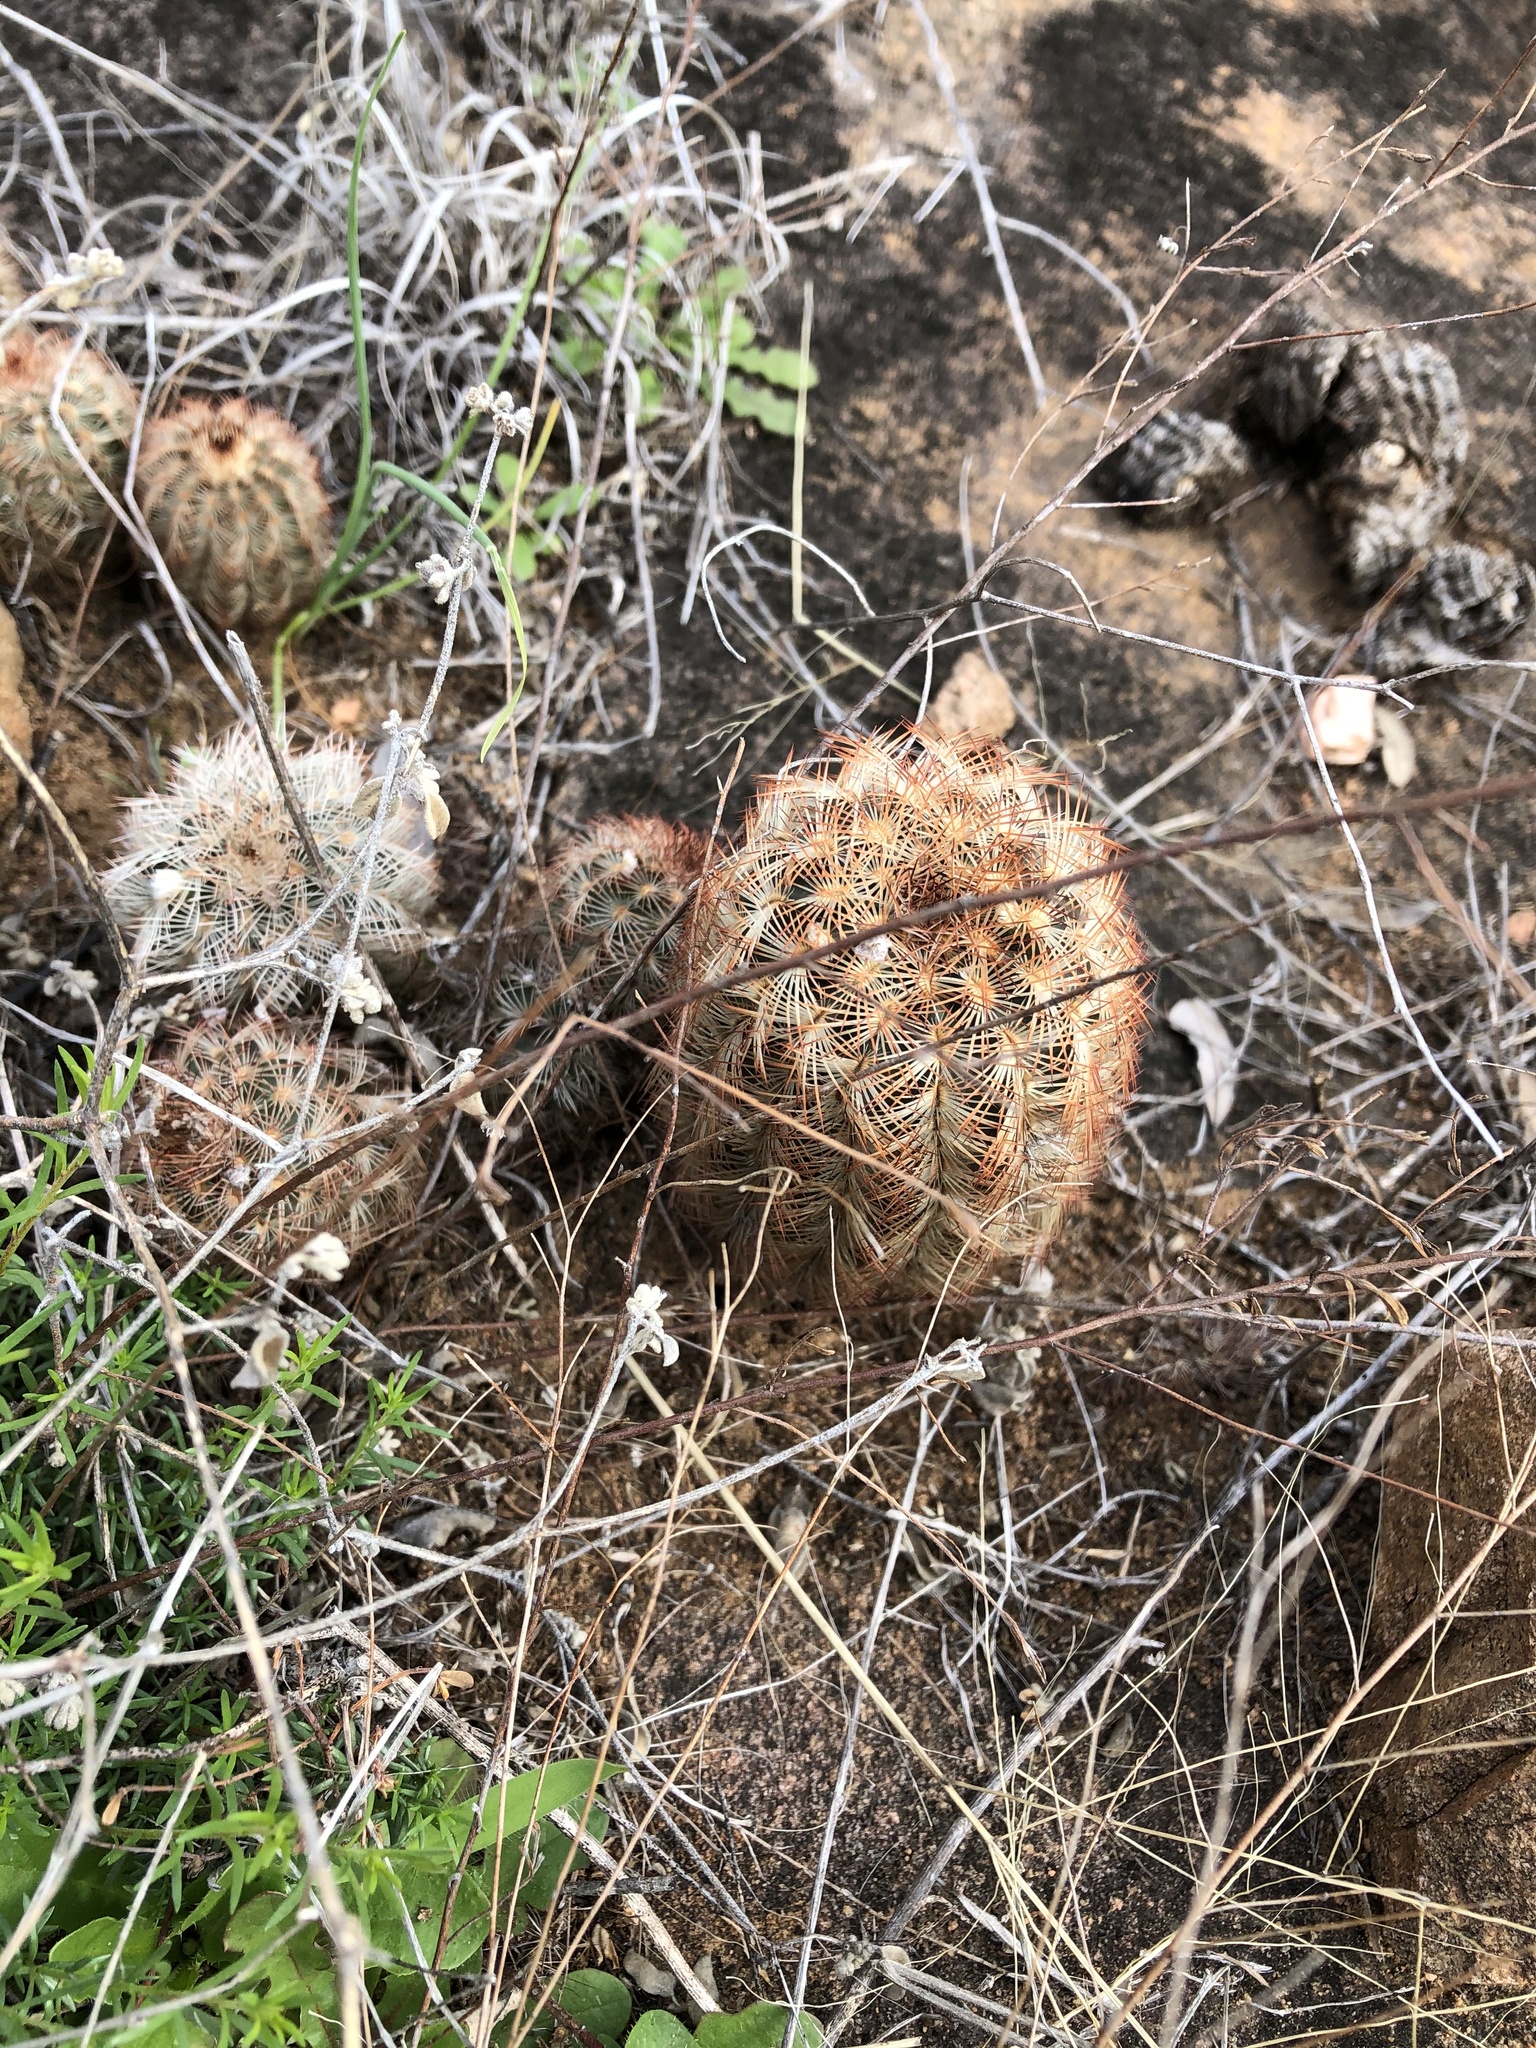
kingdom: Plantae
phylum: Tracheophyta
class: Magnoliopsida
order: Caryophyllales
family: Cactaceae
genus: Echinocereus
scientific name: Echinocereus reichenbachii
